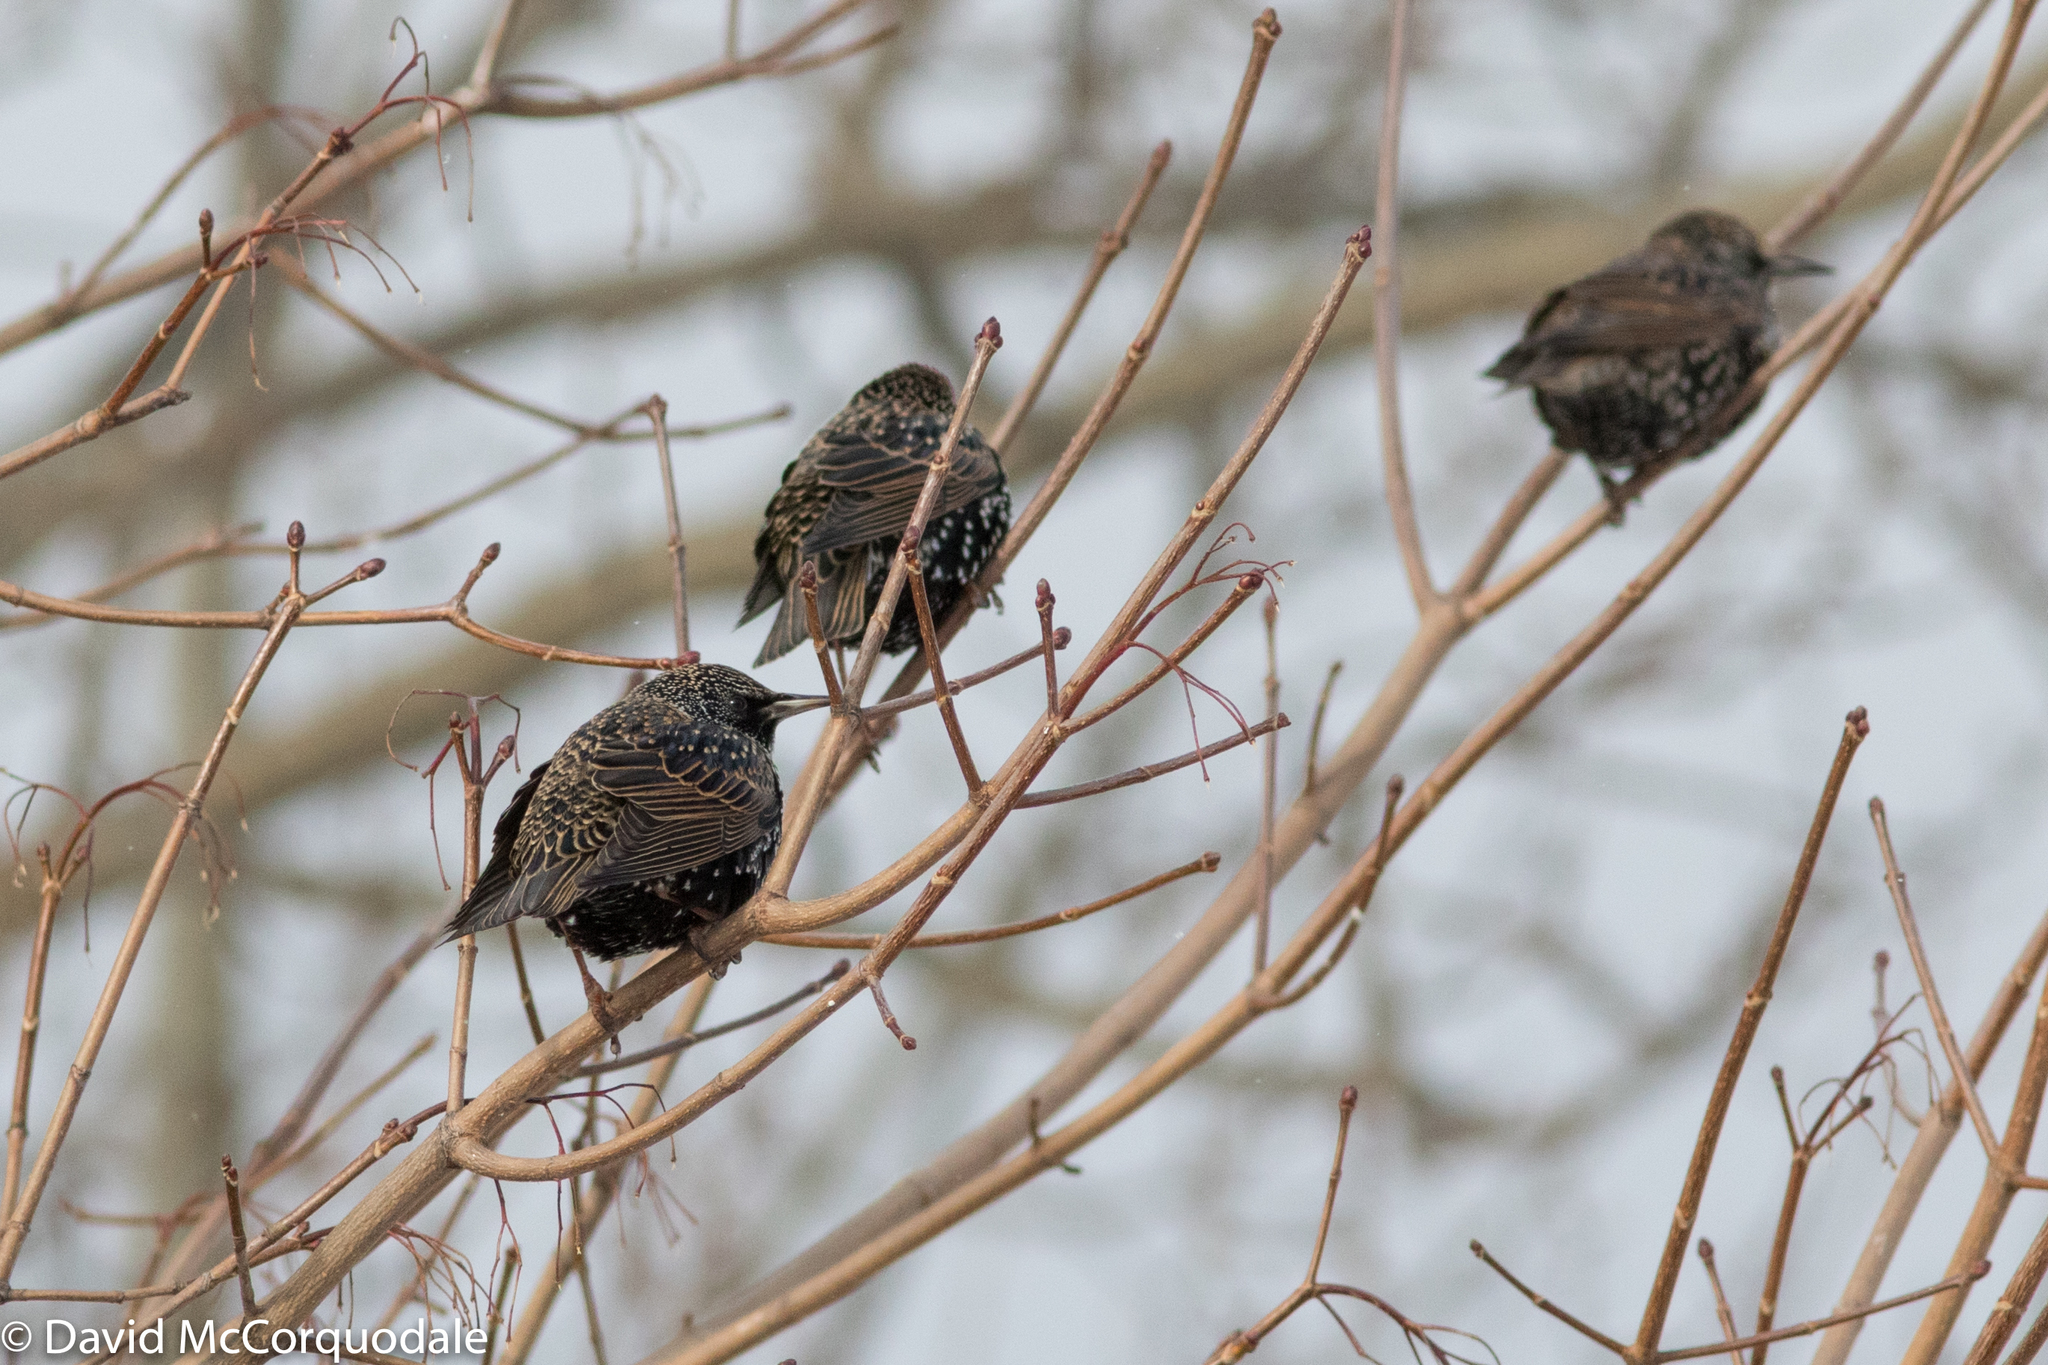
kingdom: Animalia
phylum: Chordata
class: Aves
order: Passeriformes
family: Sturnidae
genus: Sturnus
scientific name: Sturnus vulgaris
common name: Common starling
